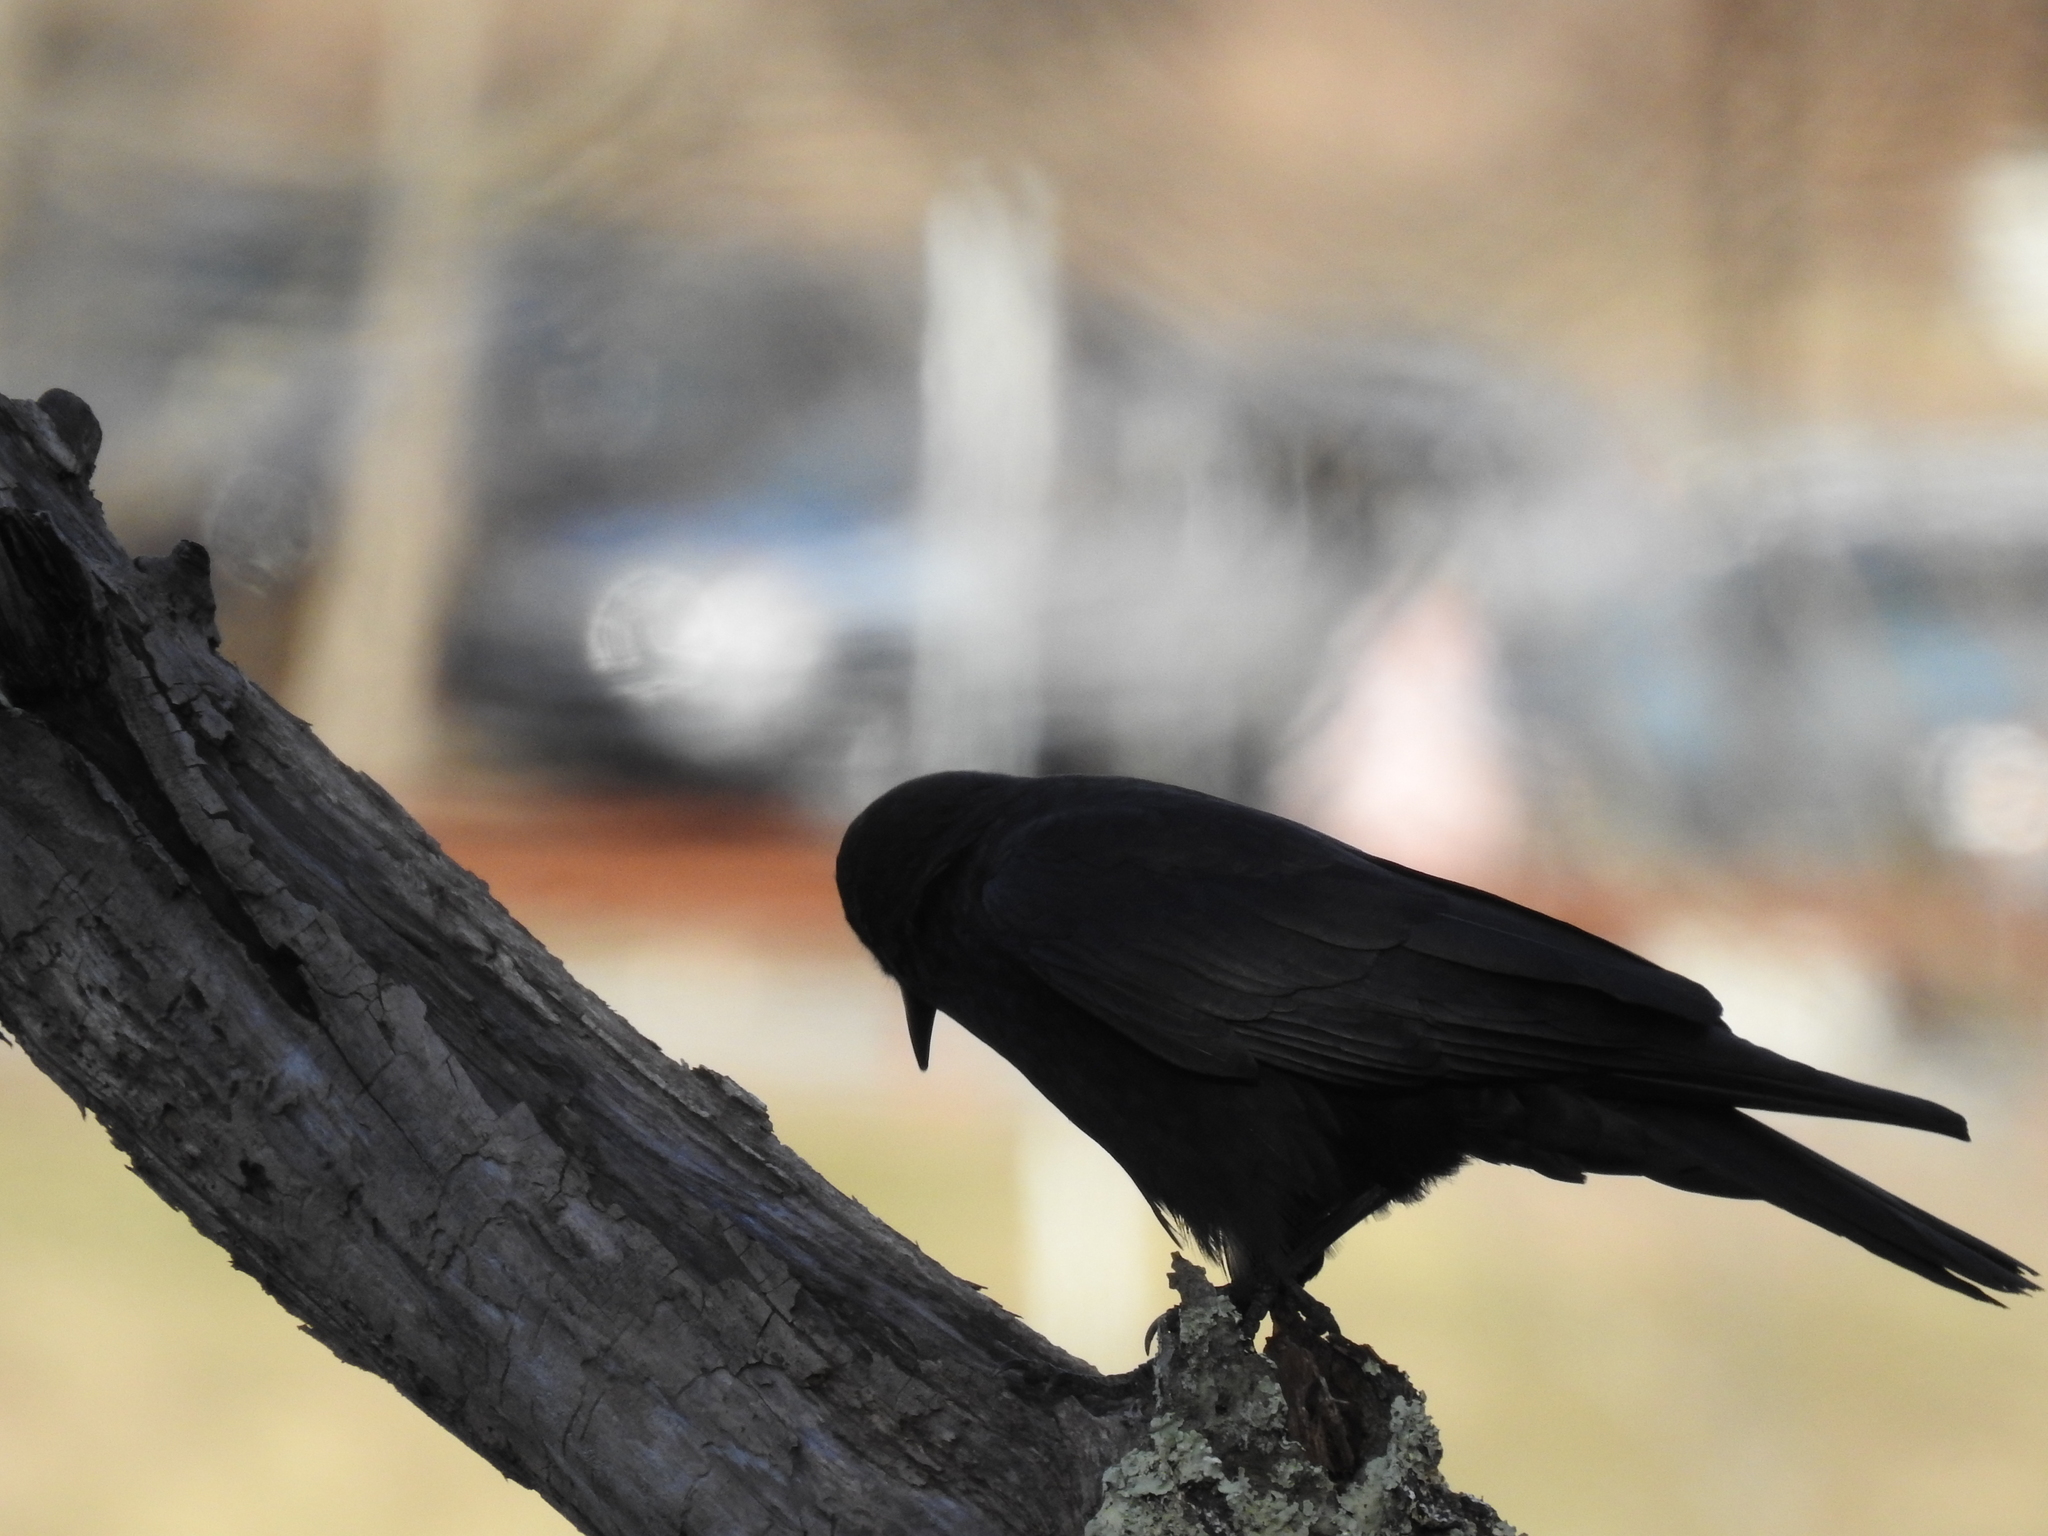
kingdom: Animalia
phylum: Chordata
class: Aves
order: Passeriformes
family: Corvidae
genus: Corvus
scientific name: Corvus brachyrhynchos
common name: American crow
